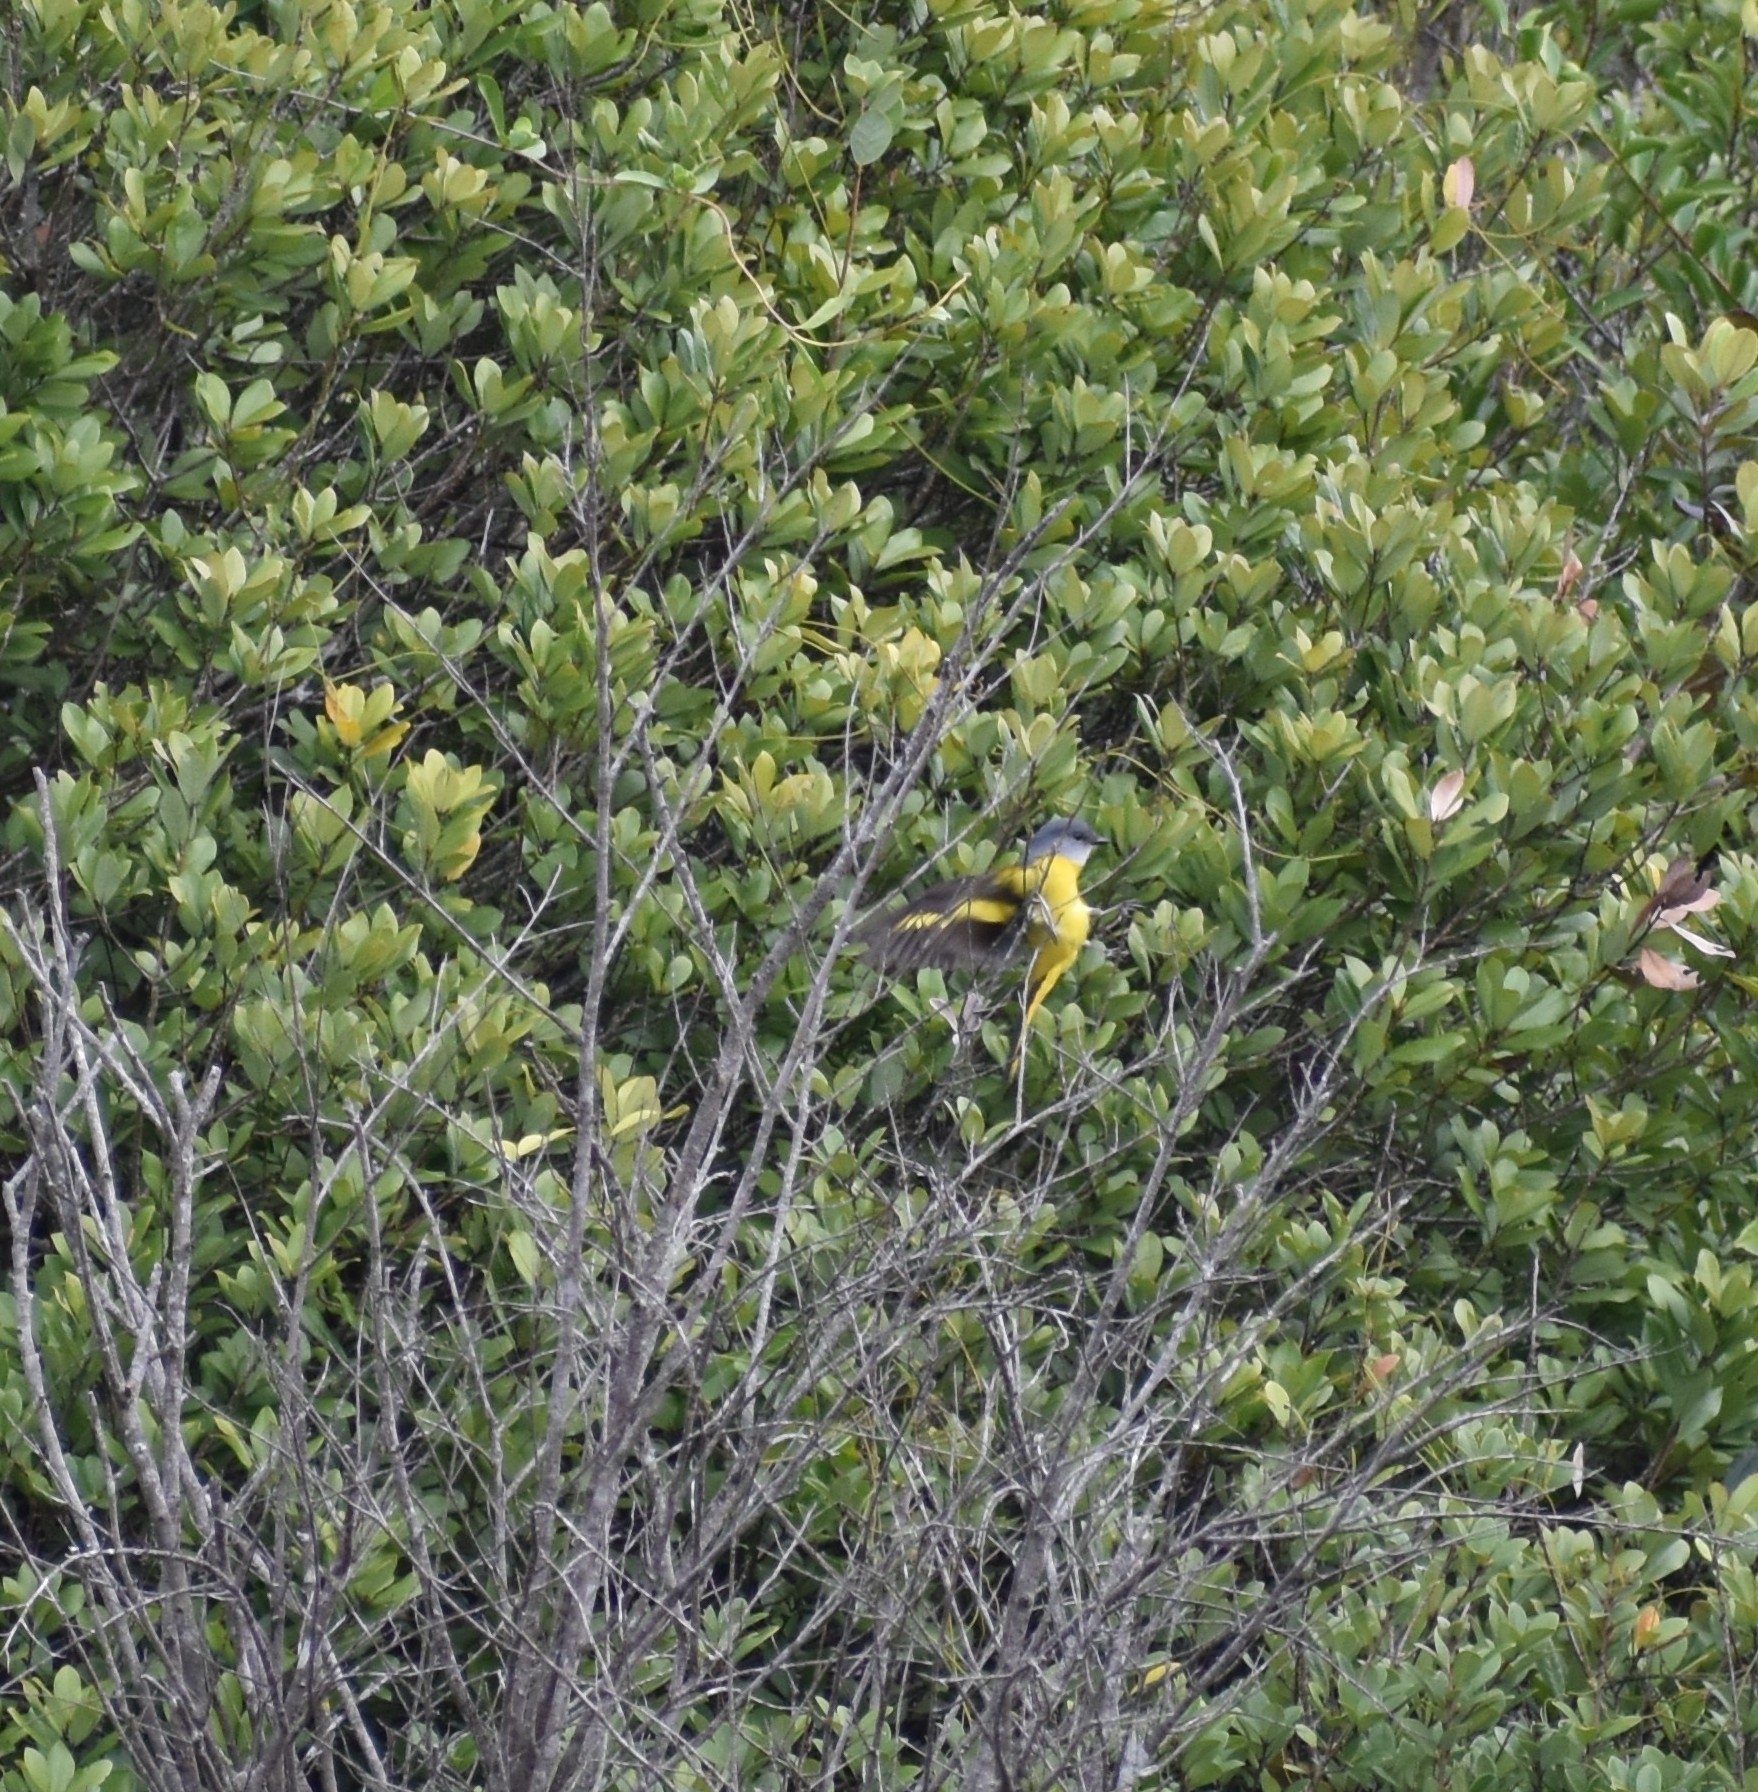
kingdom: Animalia
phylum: Chordata
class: Aves
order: Passeriformes
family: Campephagidae
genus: Pericrocotus
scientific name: Pericrocotus solaris
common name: Grey-chinned minivet
